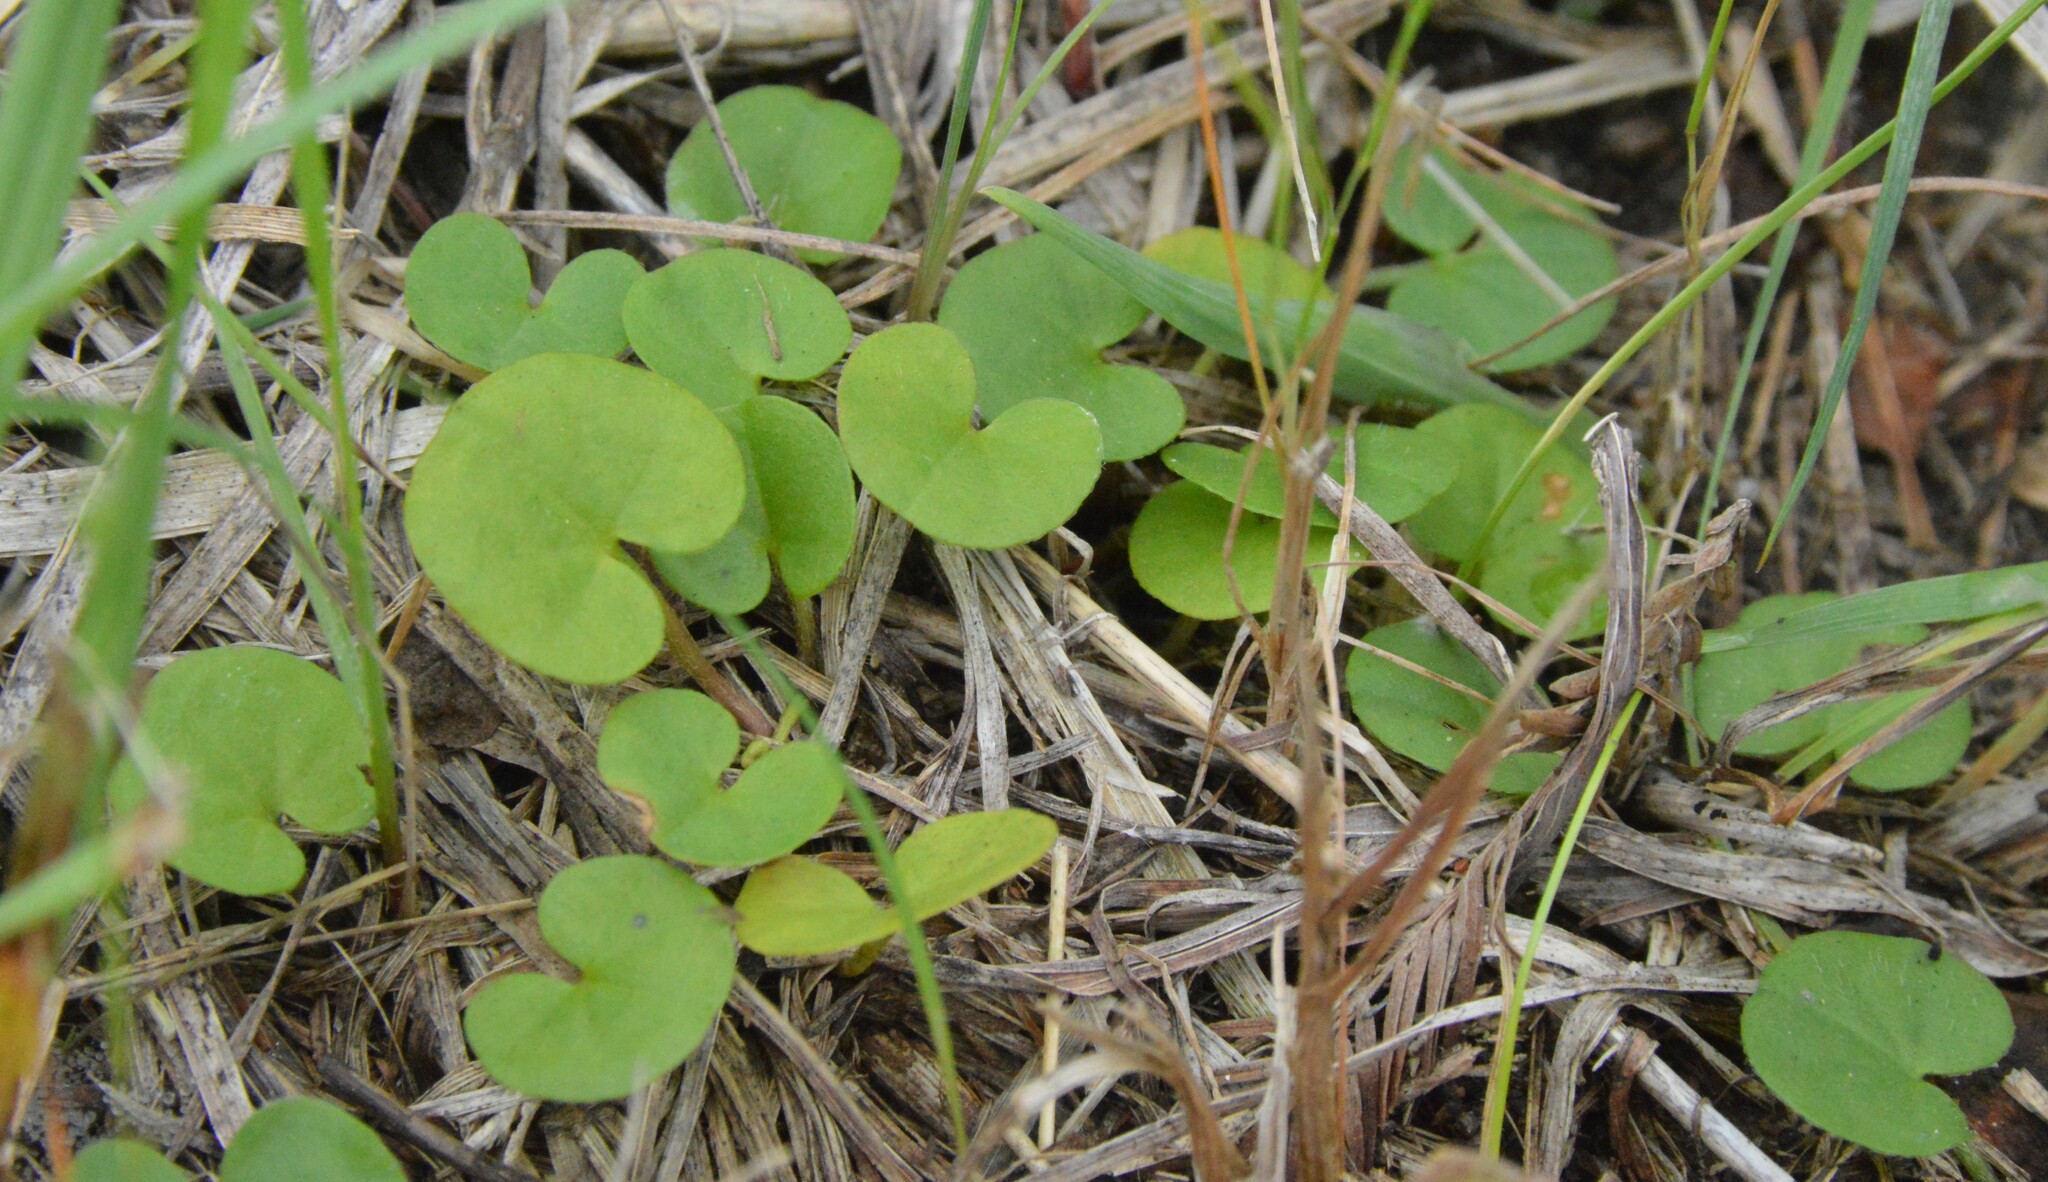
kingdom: Plantae
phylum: Tracheophyta
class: Magnoliopsida
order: Solanales
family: Convolvulaceae
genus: Dichondra
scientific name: Dichondra carolinensis
